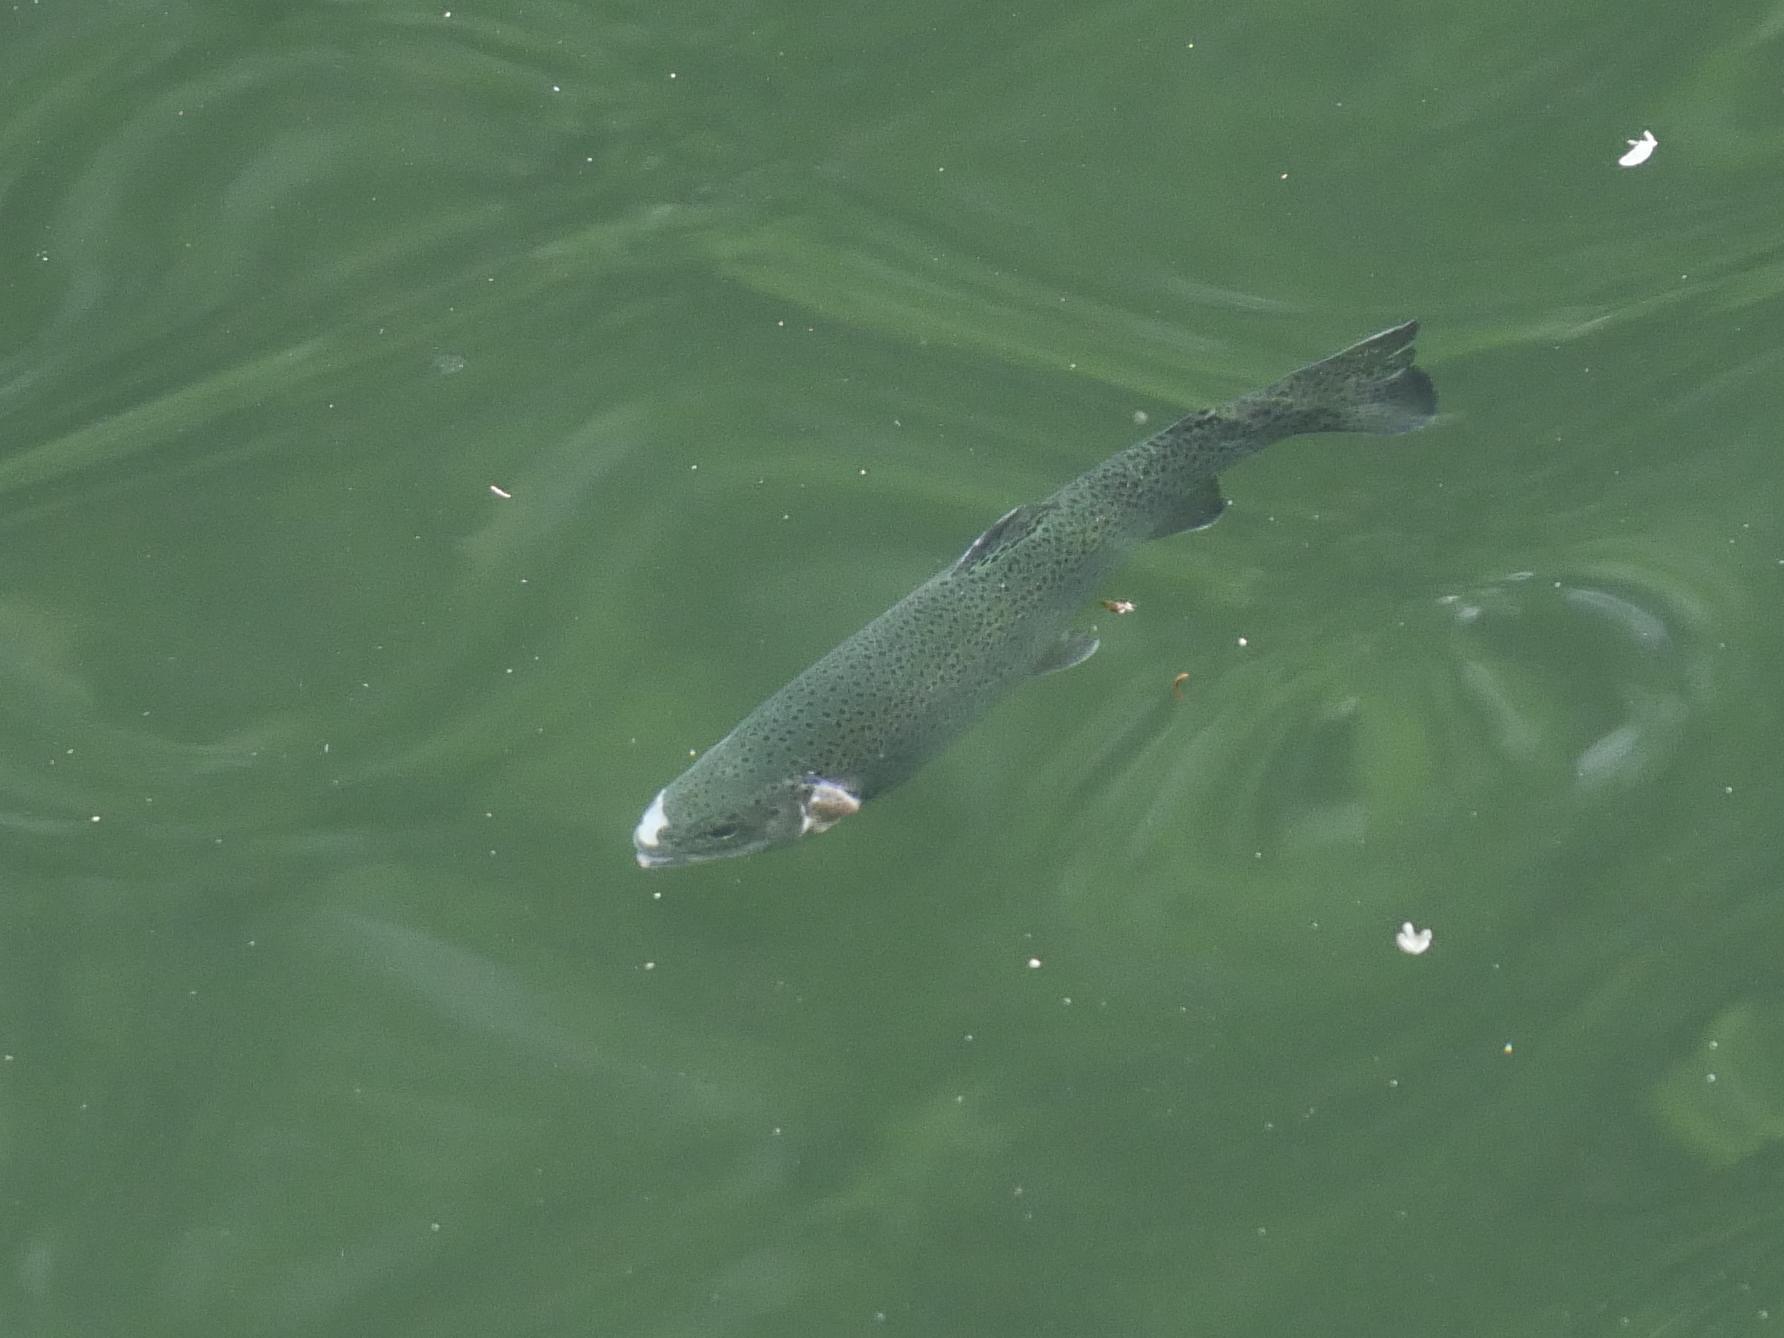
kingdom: Animalia
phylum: Chordata
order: Salmoniformes
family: Salmonidae
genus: Oncorhynchus
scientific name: Oncorhynchus mykiss
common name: Rainbow trout
